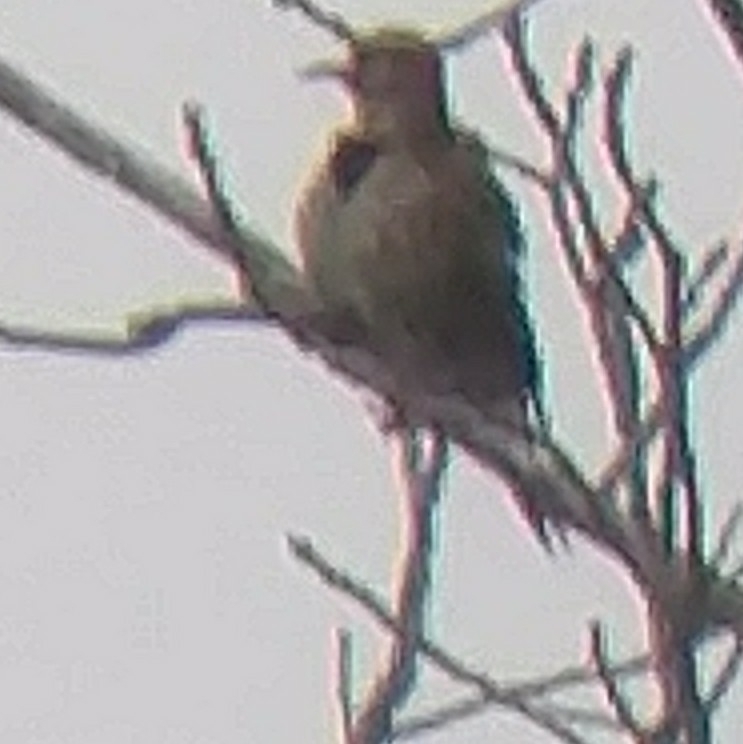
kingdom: Animalia
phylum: Chordata
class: Aves
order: Piciformes
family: Picidae
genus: Colaptes
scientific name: Colaptes auratus
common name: Northern flicker
